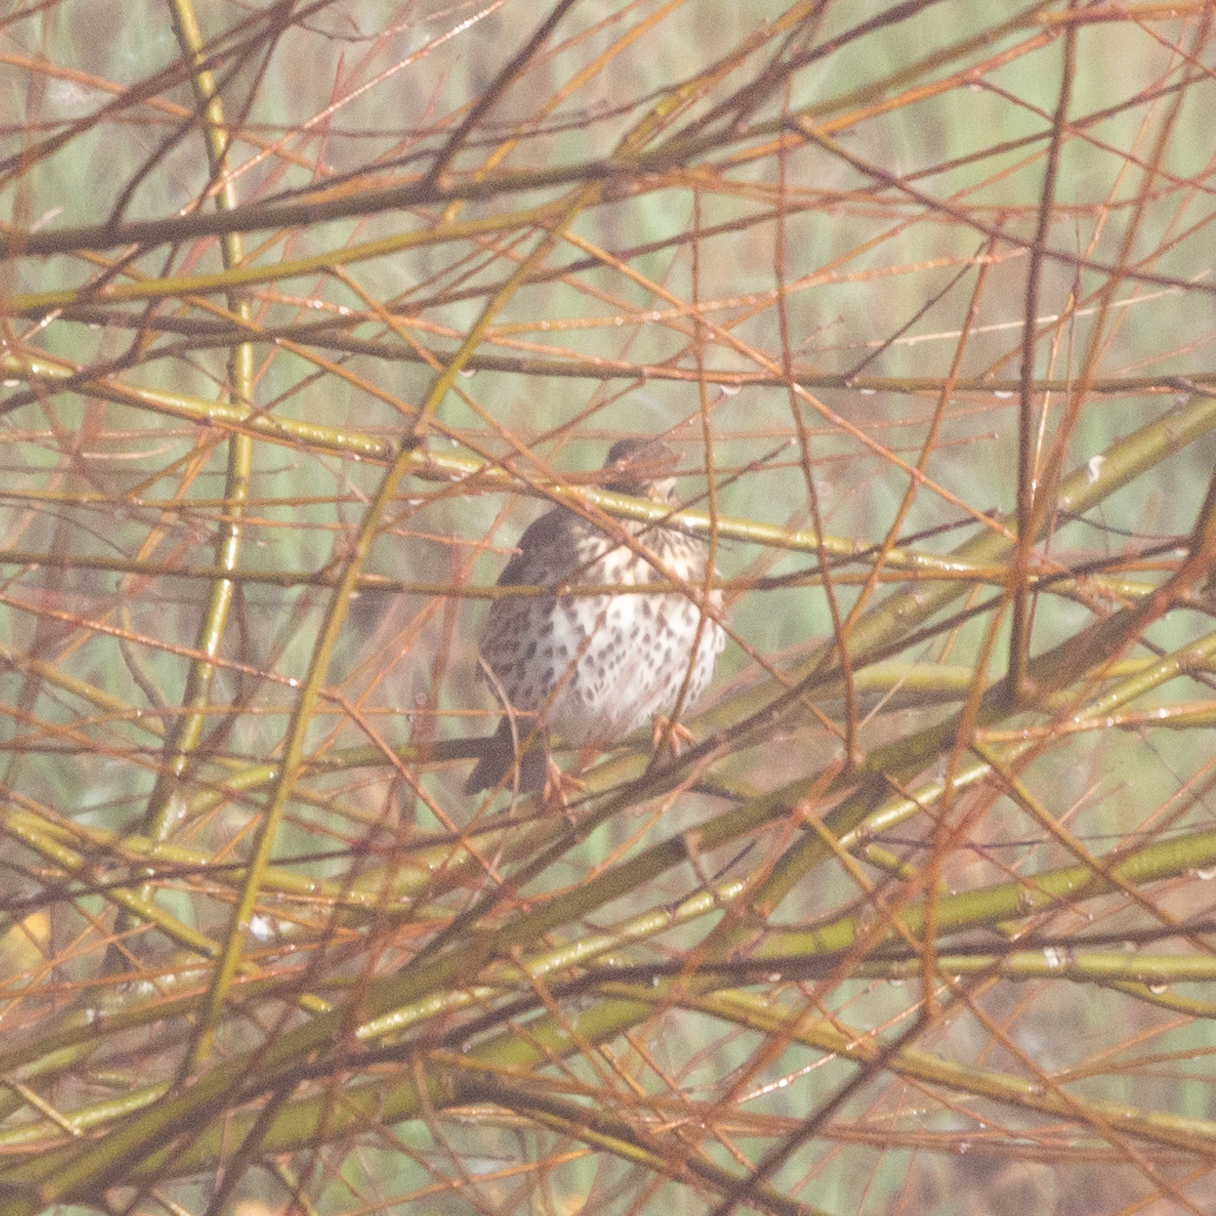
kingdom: Animalia
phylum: Chordata
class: Aves
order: Passeriformes
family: Turdidae
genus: Turdus
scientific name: Turdus philomelos
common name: Song thrush
